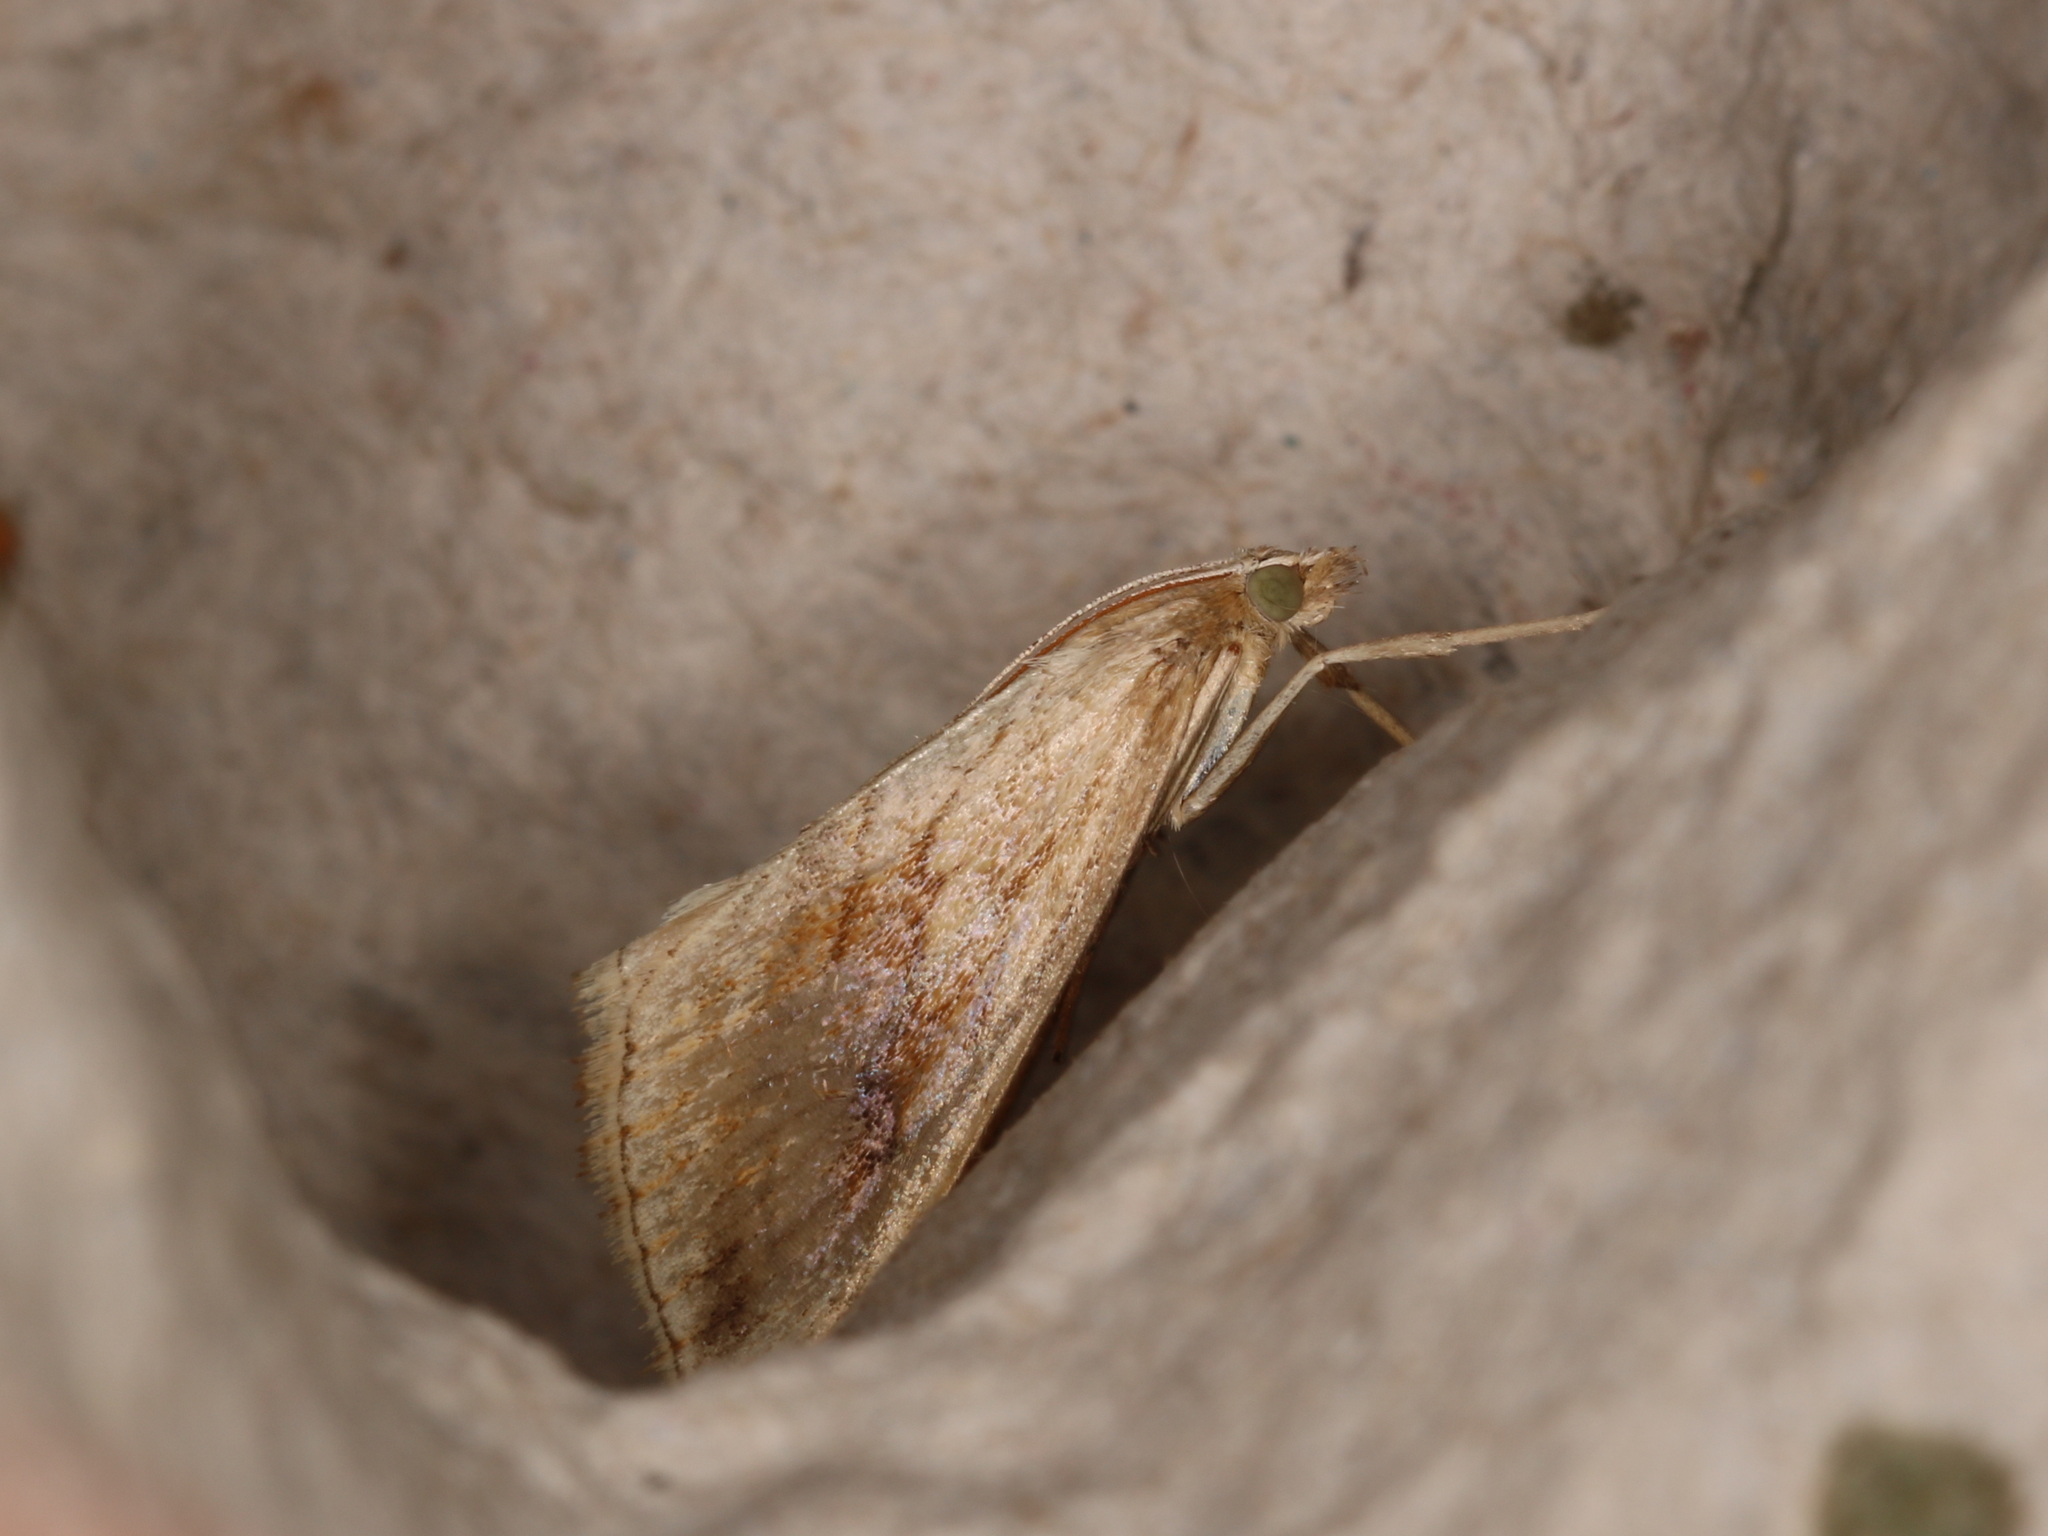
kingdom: Animalia
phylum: Arthropoda
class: Insecta
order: Lepidoptera
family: Crambidae
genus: Evergestis
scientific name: Evergestis forficalis
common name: Garden pebble
